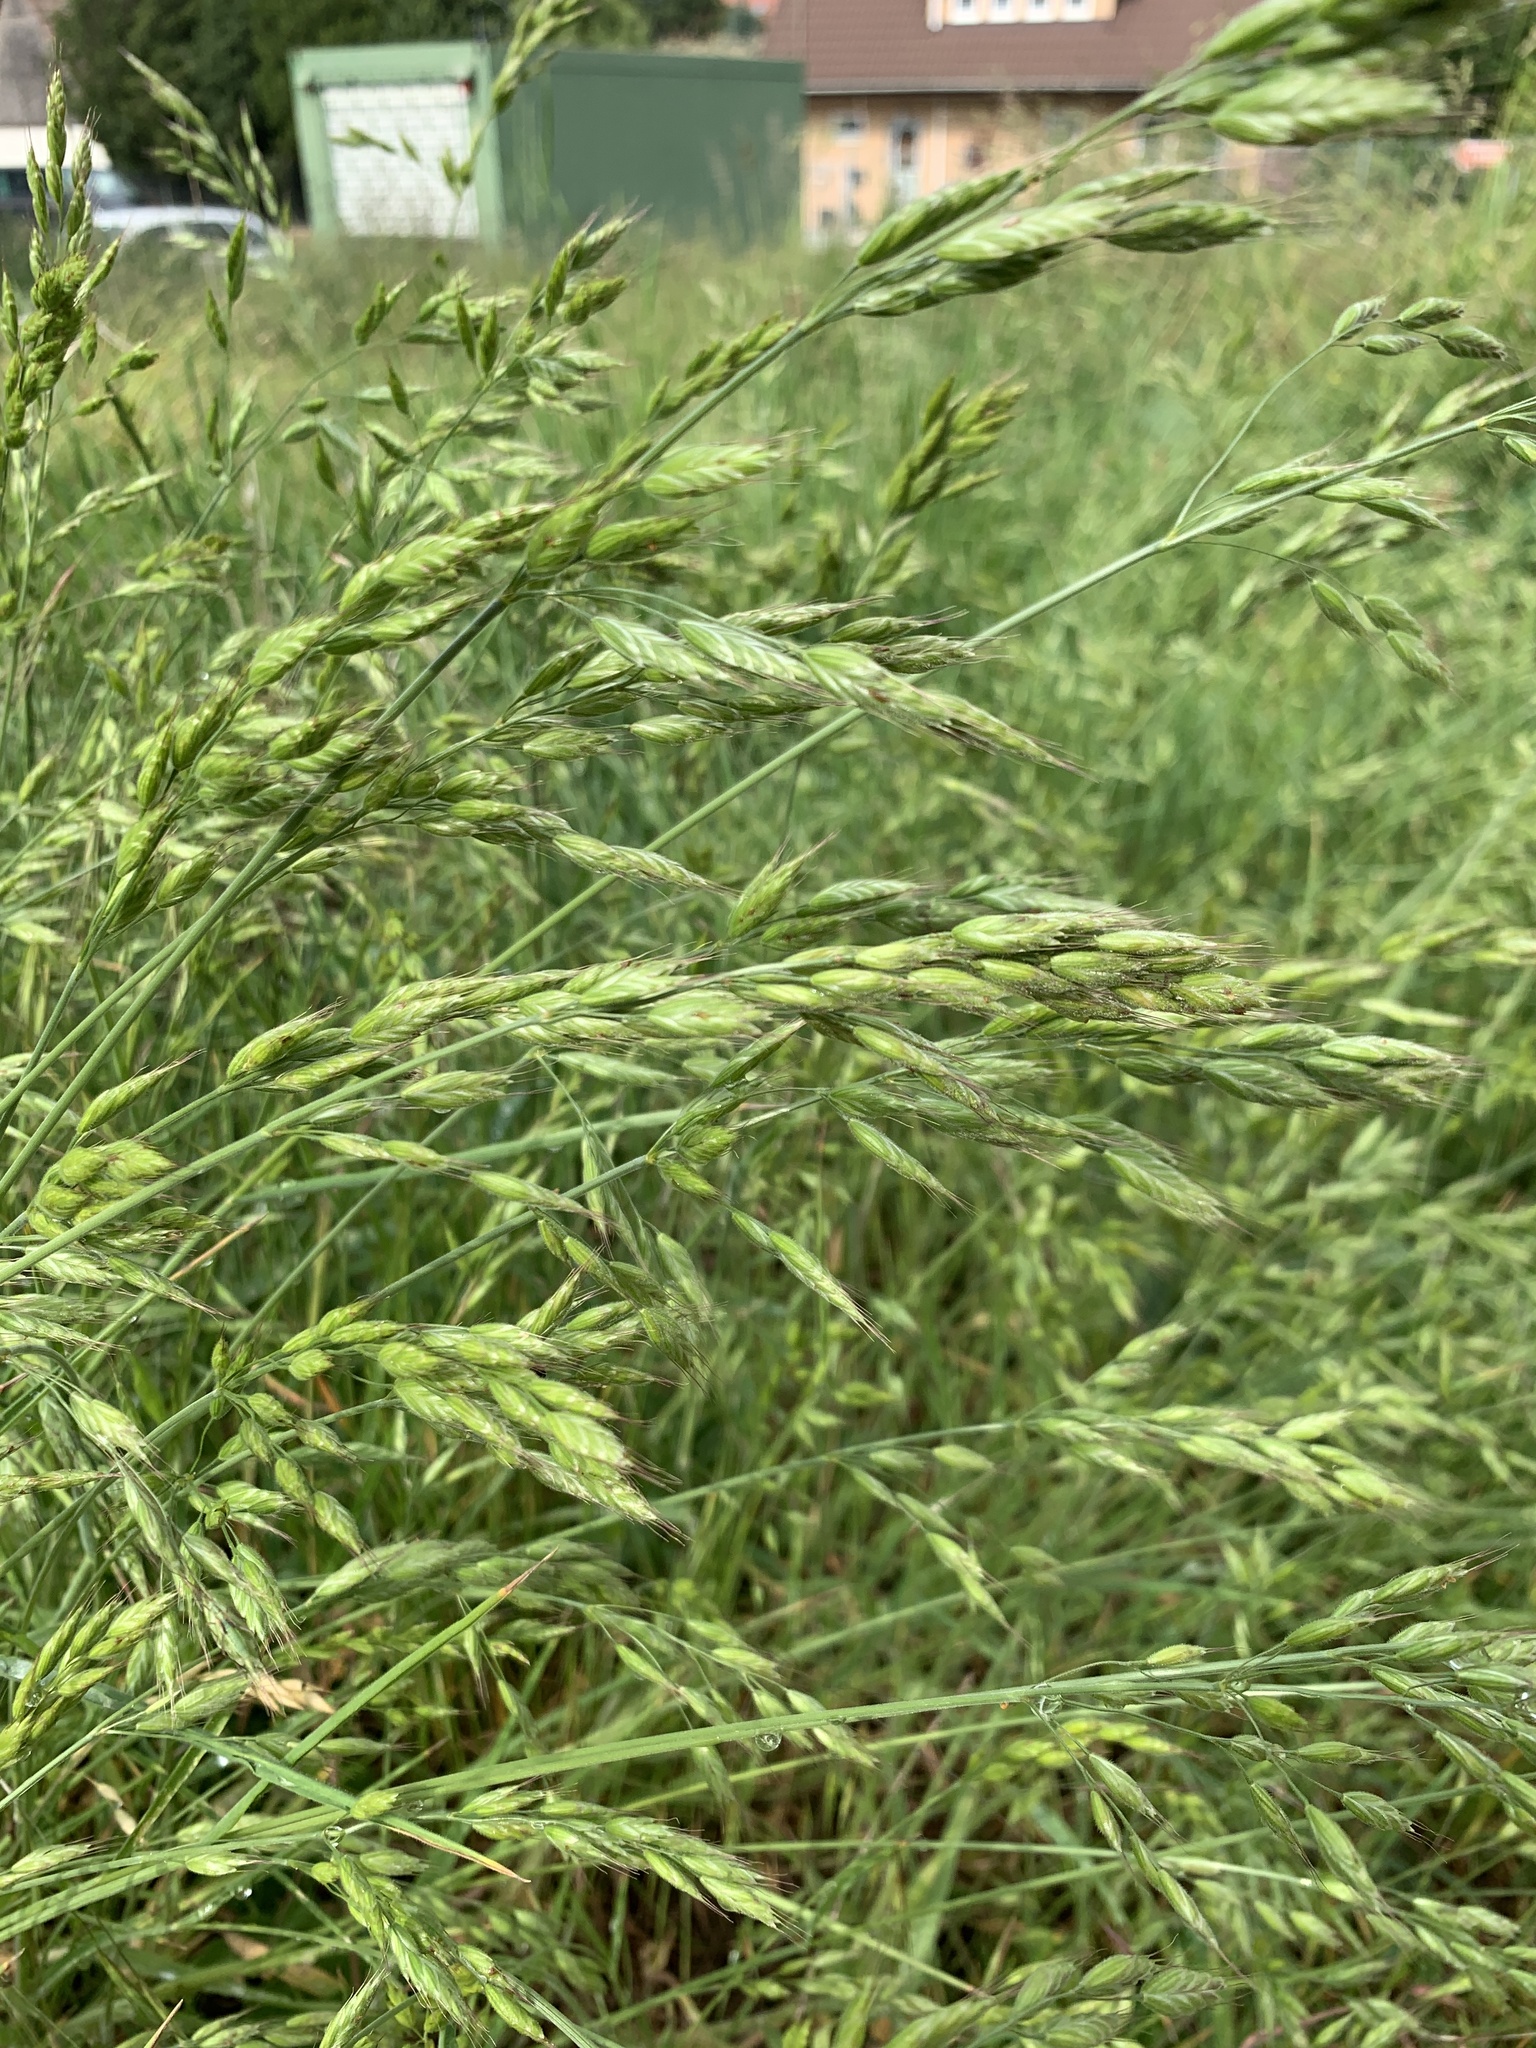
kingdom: Plantae
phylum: Tracheophyta
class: Liliopsida
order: Poales
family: Poaceae
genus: Bromus
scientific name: Bromus hordeaceus
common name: Soft brome
